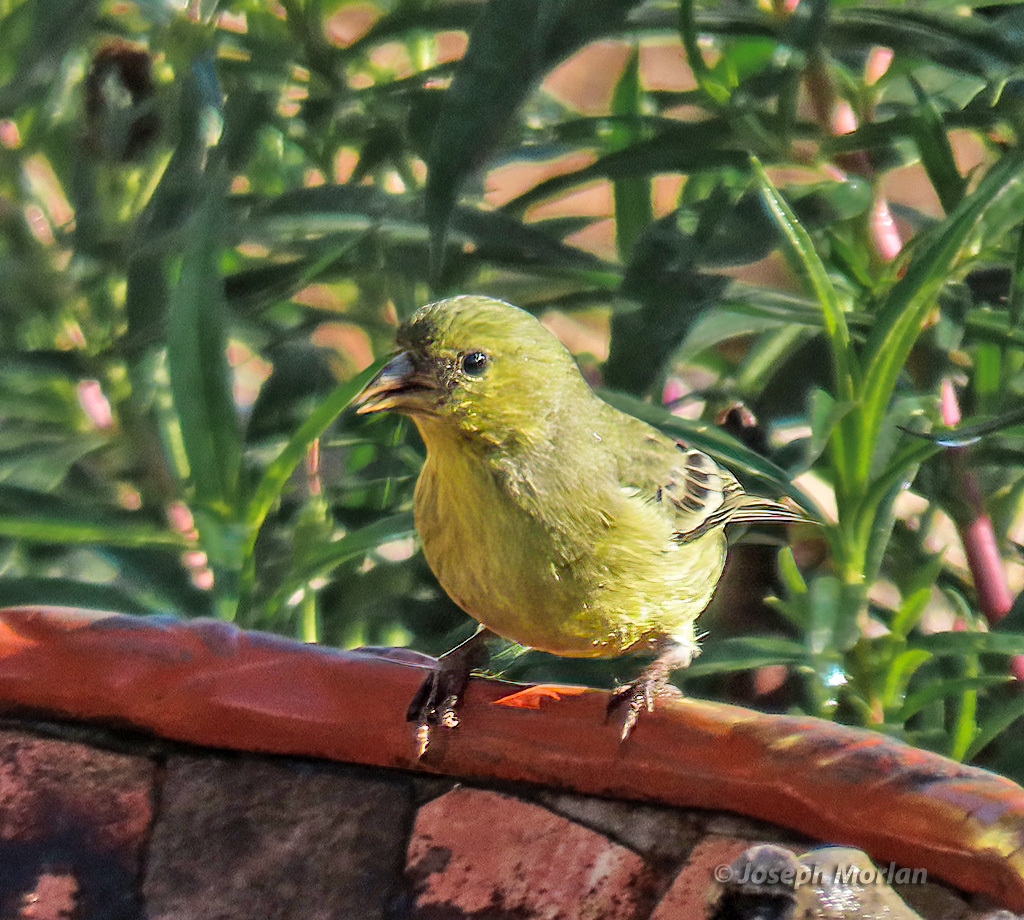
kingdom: Animalia
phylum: Chordata
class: Aves
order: Passeriformes
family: Fringillidae
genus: Spinus
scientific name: Spinus psaltria
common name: Lesser goldfinch
